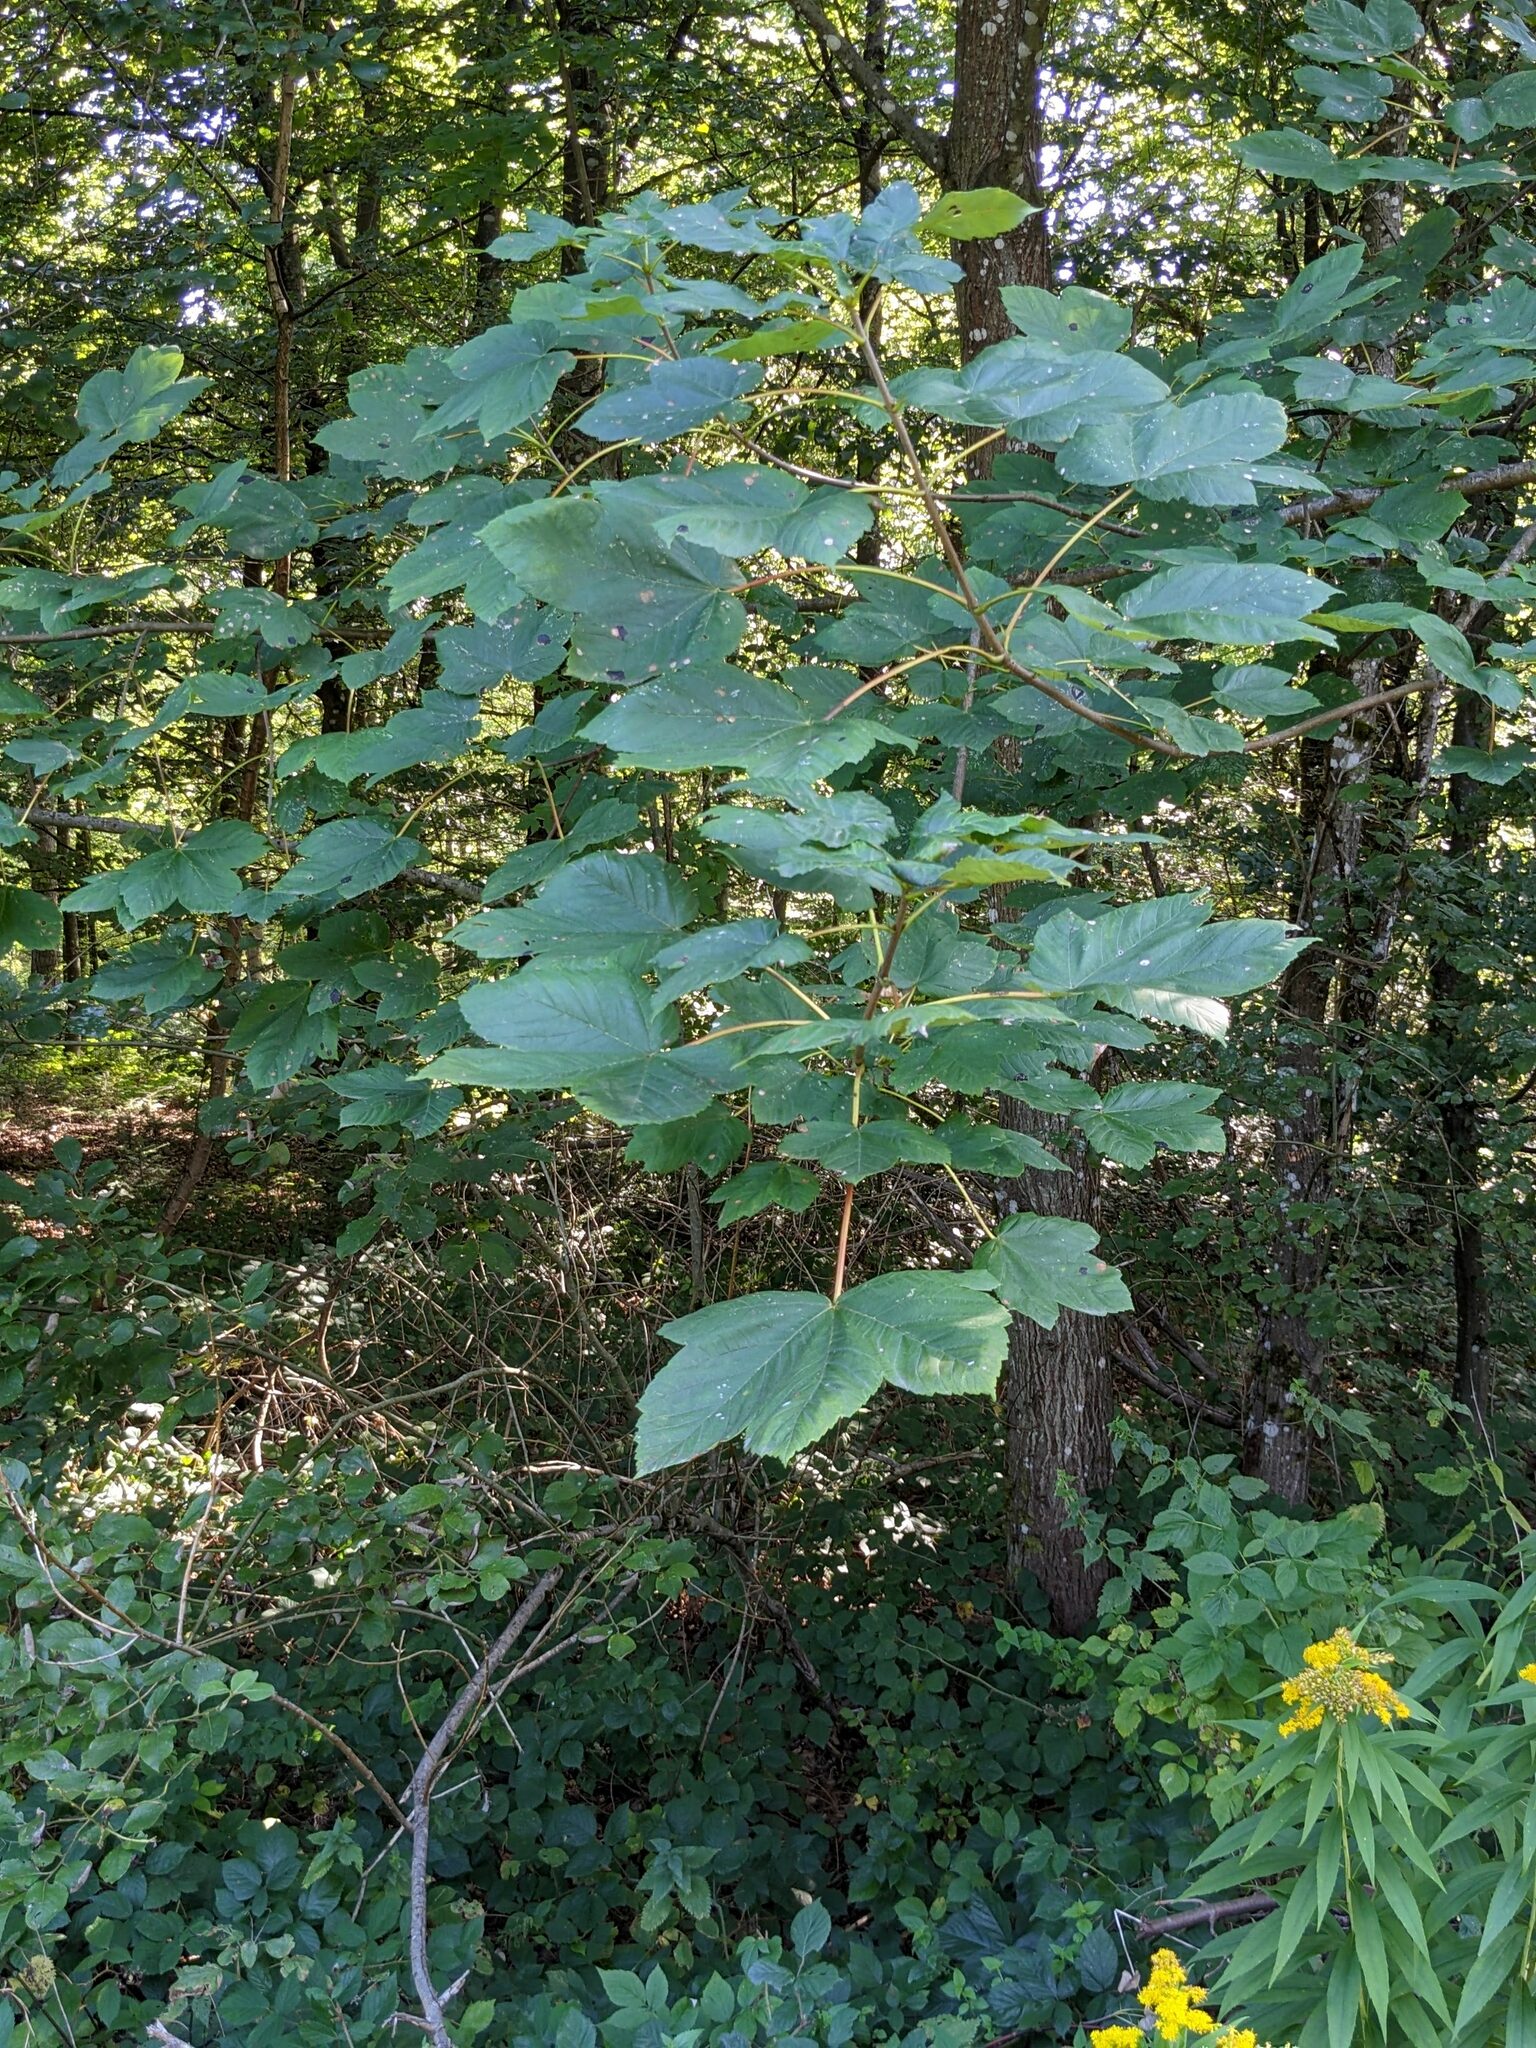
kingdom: Plantae
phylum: Tracheophyta
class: Magnoliopsida
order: Sapindales
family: Sapindaceae
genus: Acer
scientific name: Acer pseudoplatanus
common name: Sycamore
